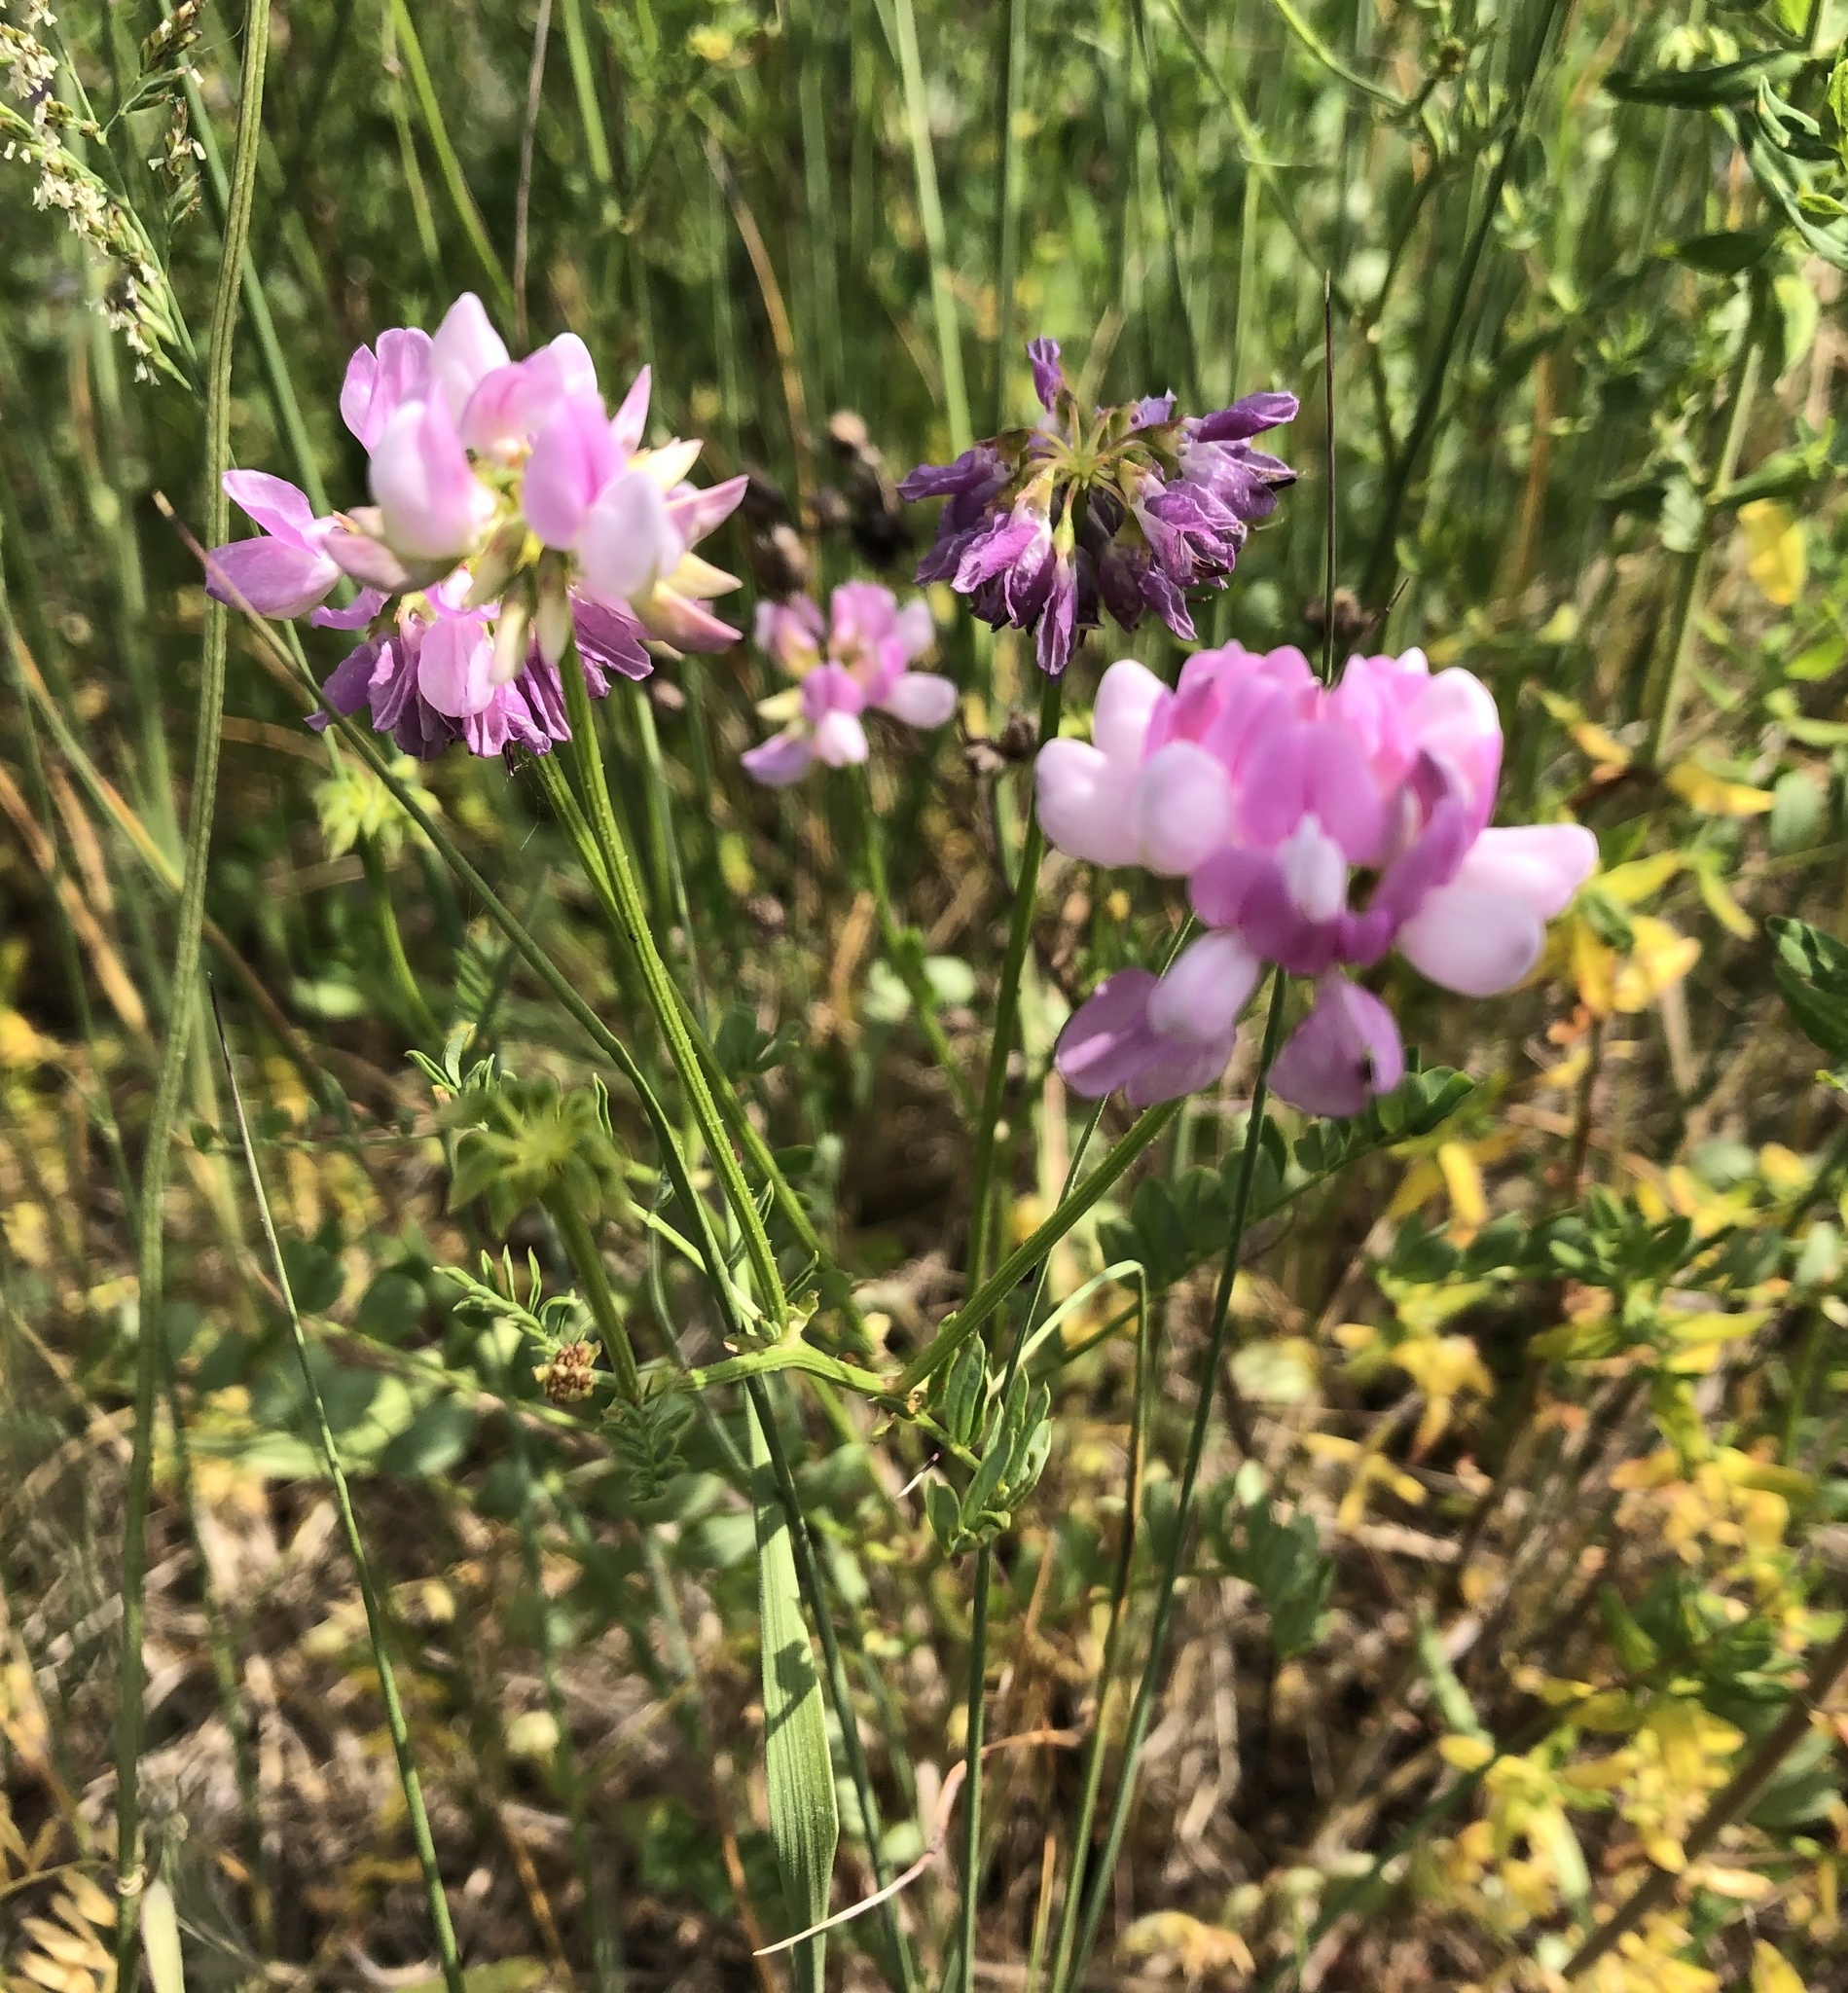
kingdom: Plantae
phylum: Tracheophyta
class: Magnoliopsida
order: Fabales
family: Fabaceae
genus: Coronilla
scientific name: Coronilla varia
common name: Crownvetch
